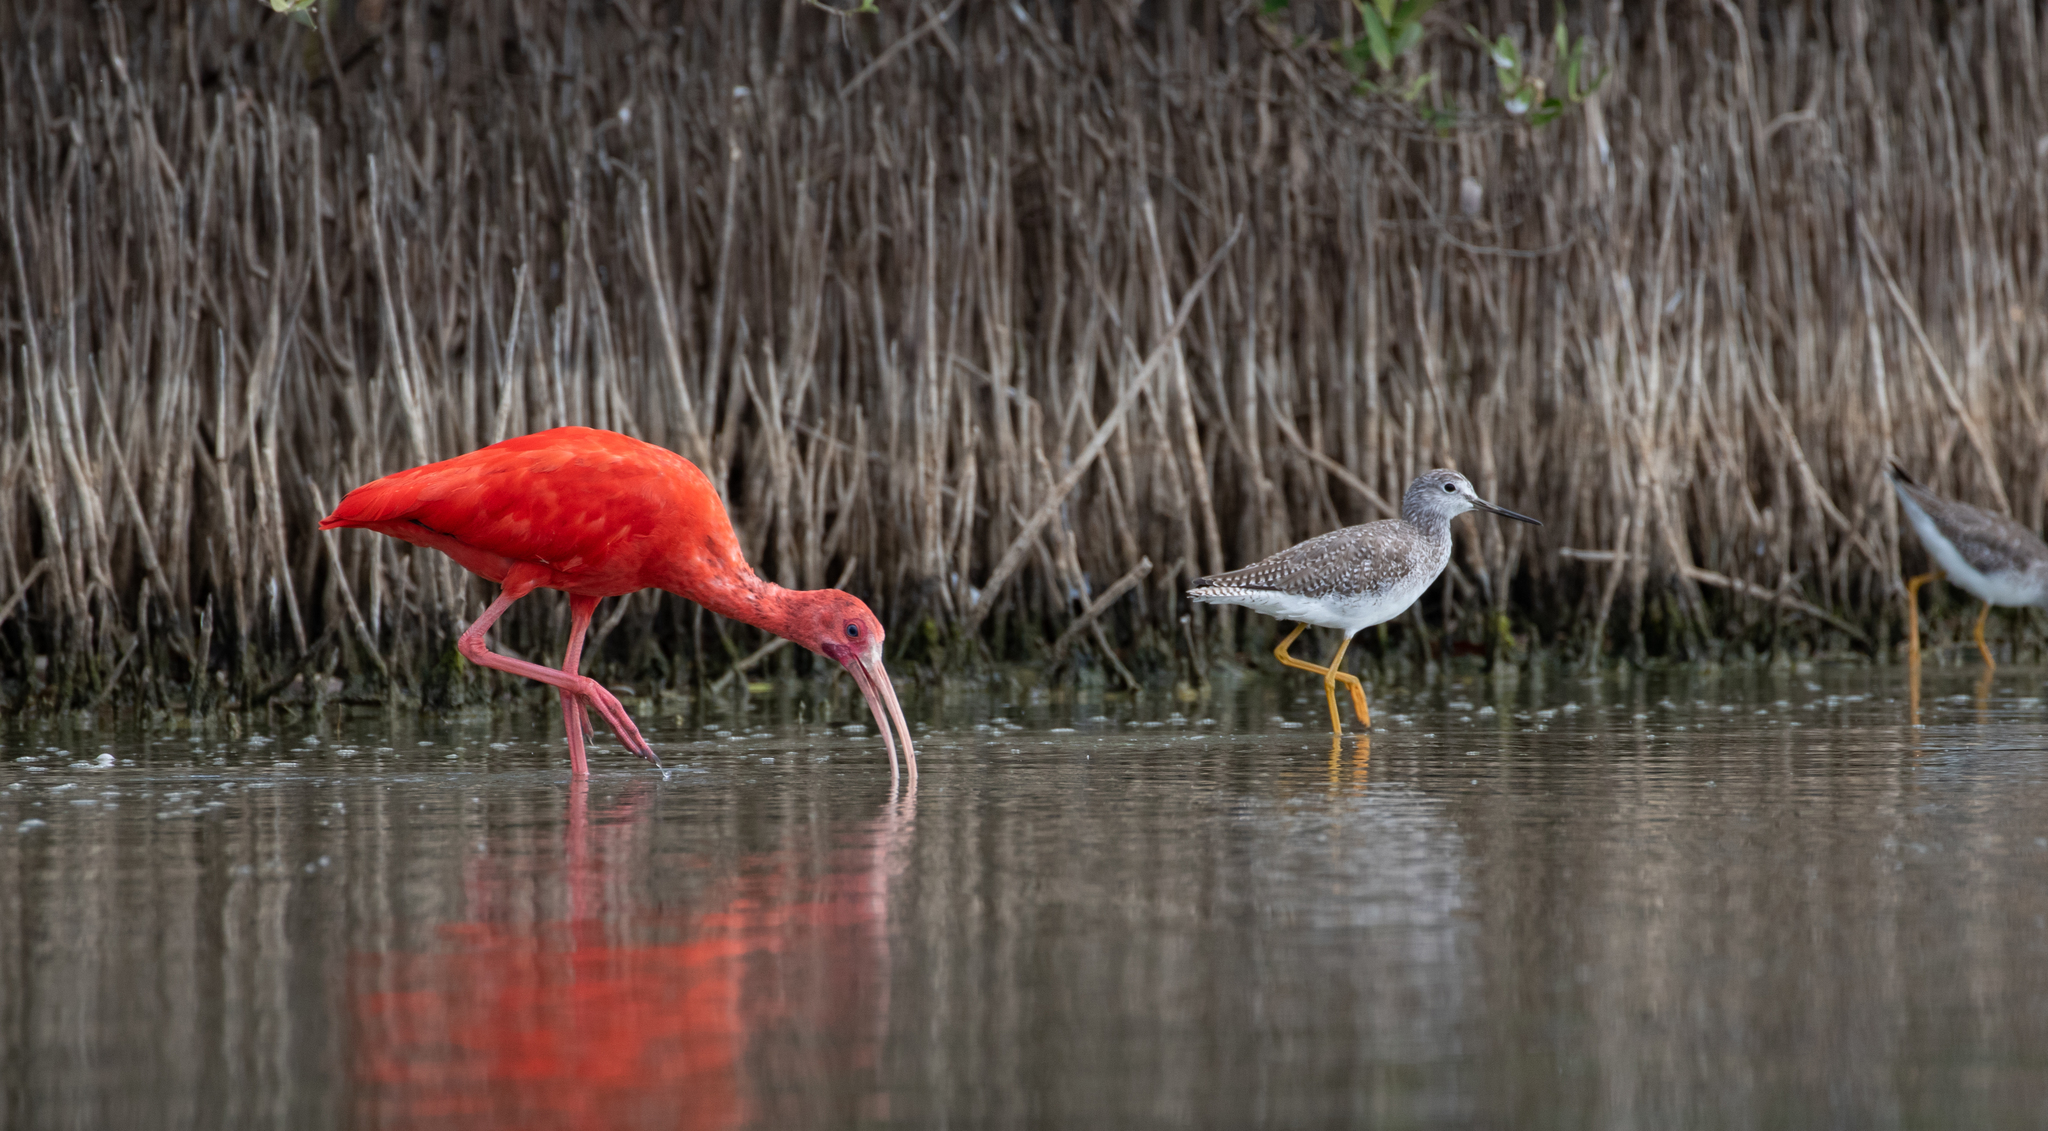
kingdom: Animalia
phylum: Chordata
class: Aves
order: Charadriiformes
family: Scolopacidae
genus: Tringa
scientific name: Tringa melanoleuca
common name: Greater yellowlegs
